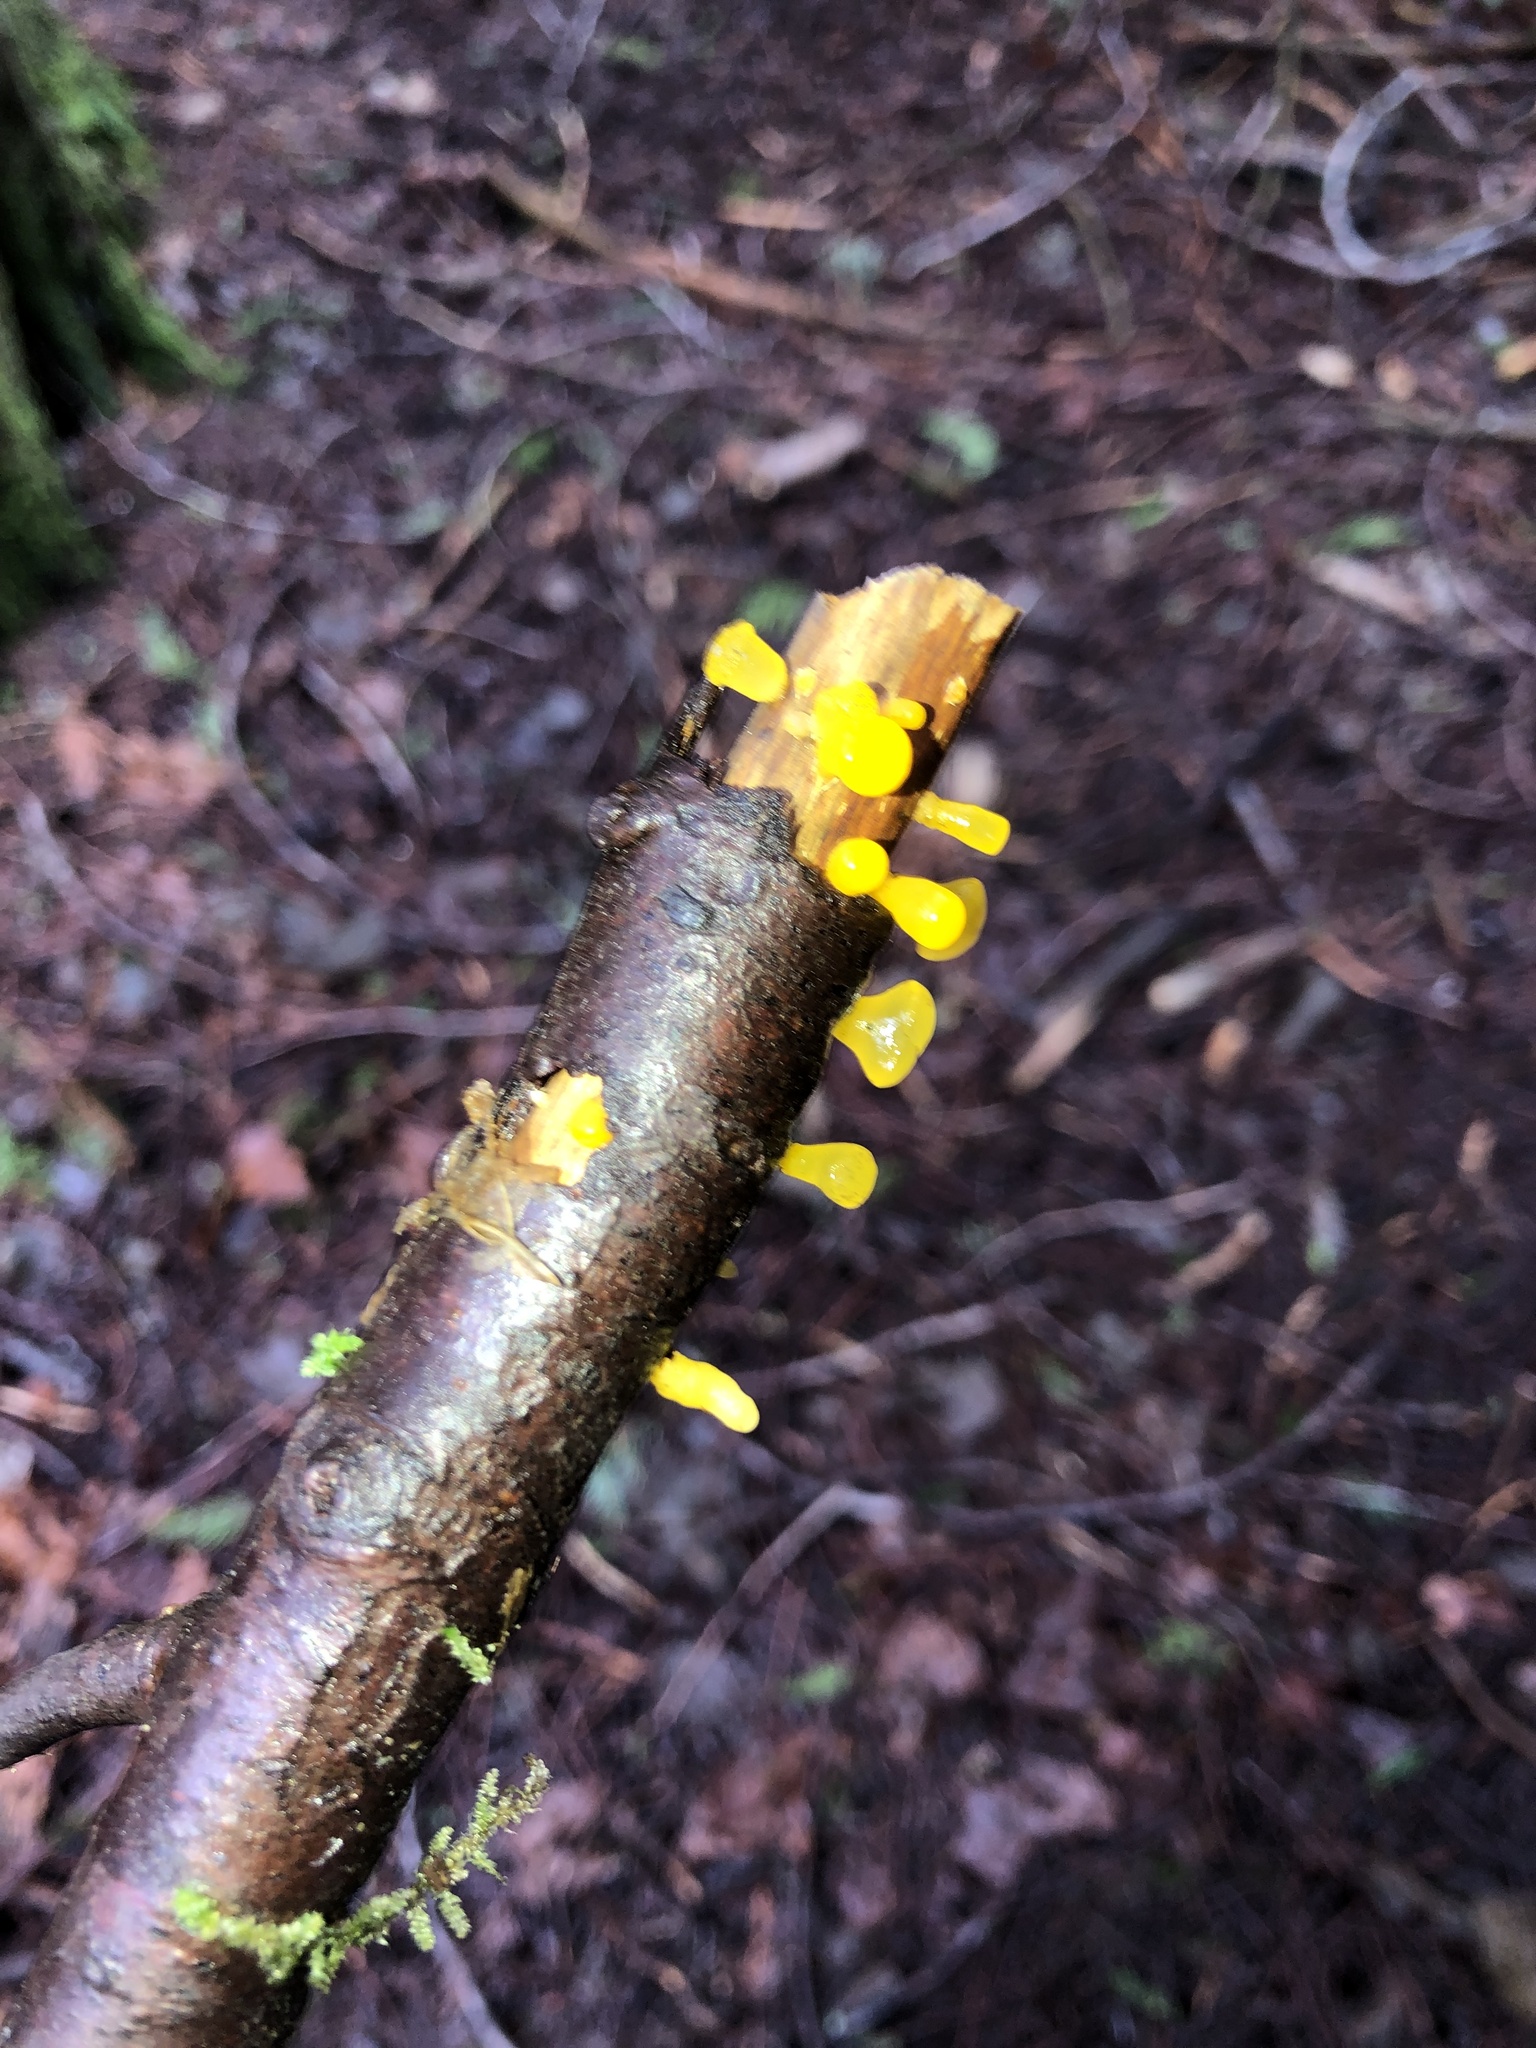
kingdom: Fungi
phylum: Basidiomycota
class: Dacrymycetes
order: Dacrymycetales
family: Dacrymycetaceae
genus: Guepiniopsis
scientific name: Guepiniopsis alpina
